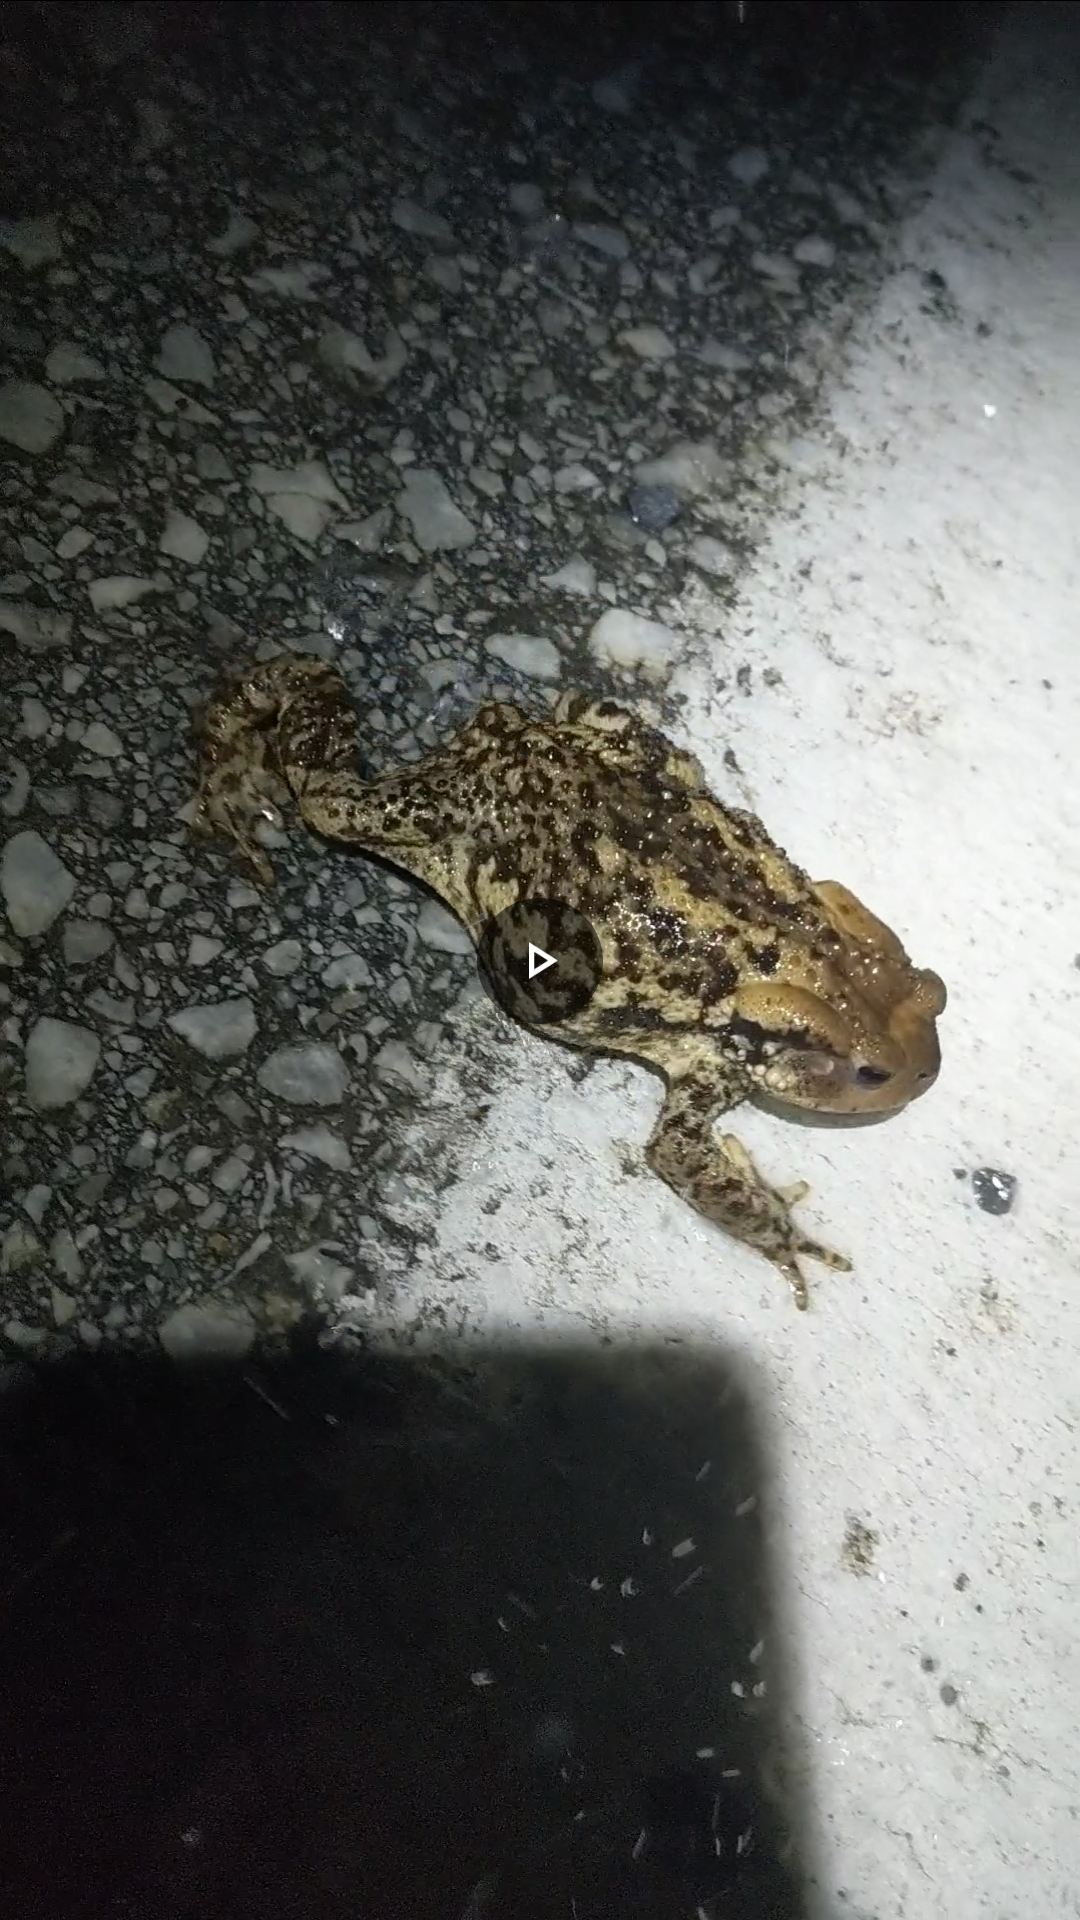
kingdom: Animalia
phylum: Chordata
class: Amphibia
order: Anura
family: Bufonidae
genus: Bufo
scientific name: Bufo bufo
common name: Common toad
